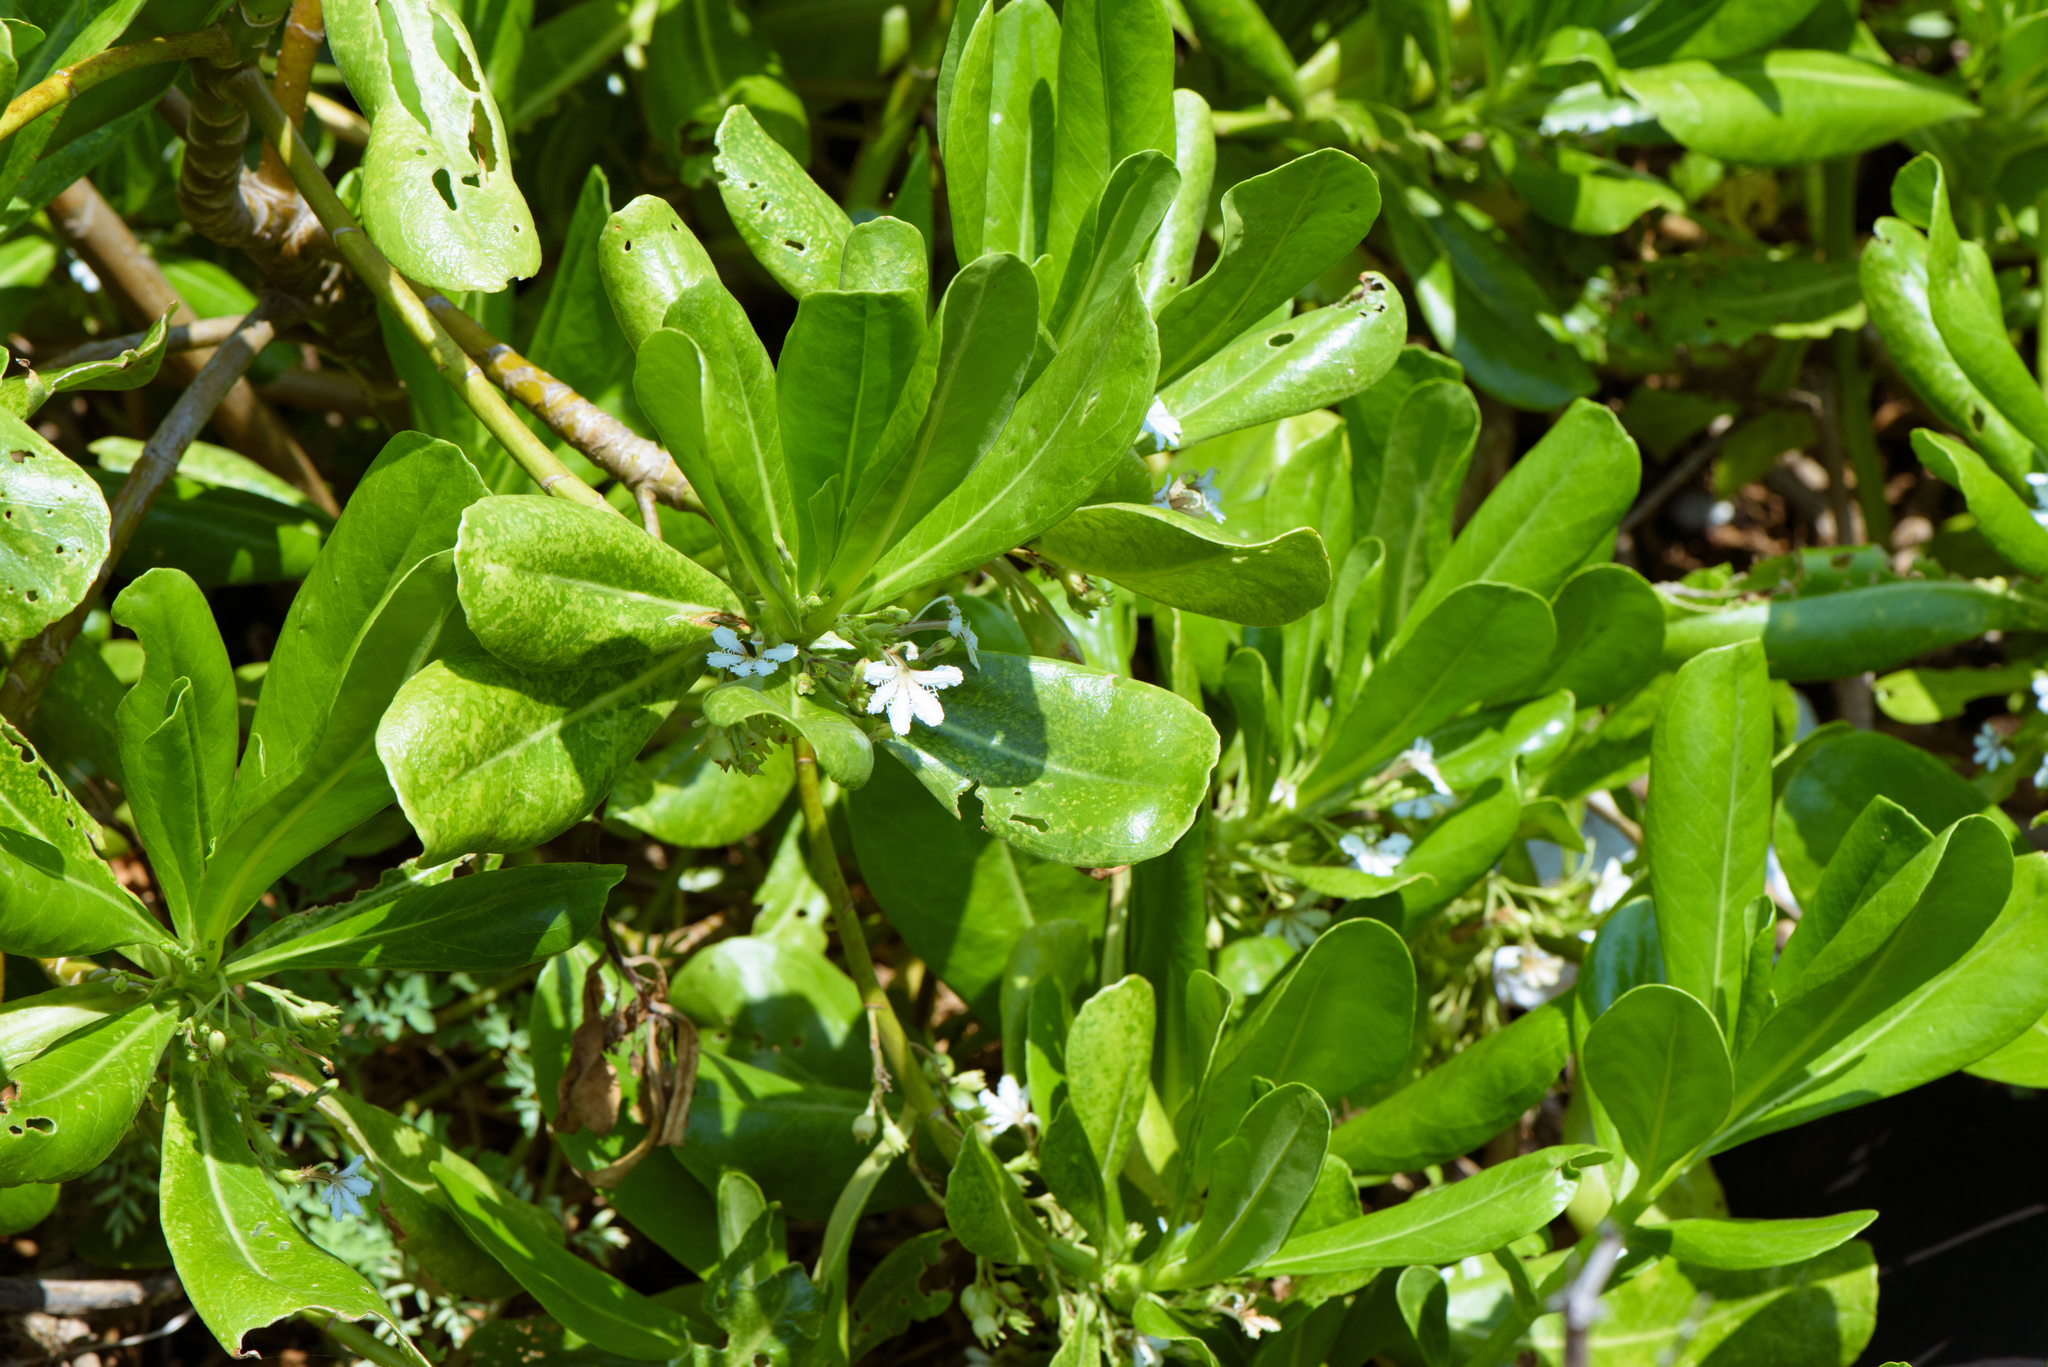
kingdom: Plantae
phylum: Tracheophyta
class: Magnoliopsida
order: Asterales
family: Goodeniaceae
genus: Scaevola
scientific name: Scaevola taccada
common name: Sea lettucetree
